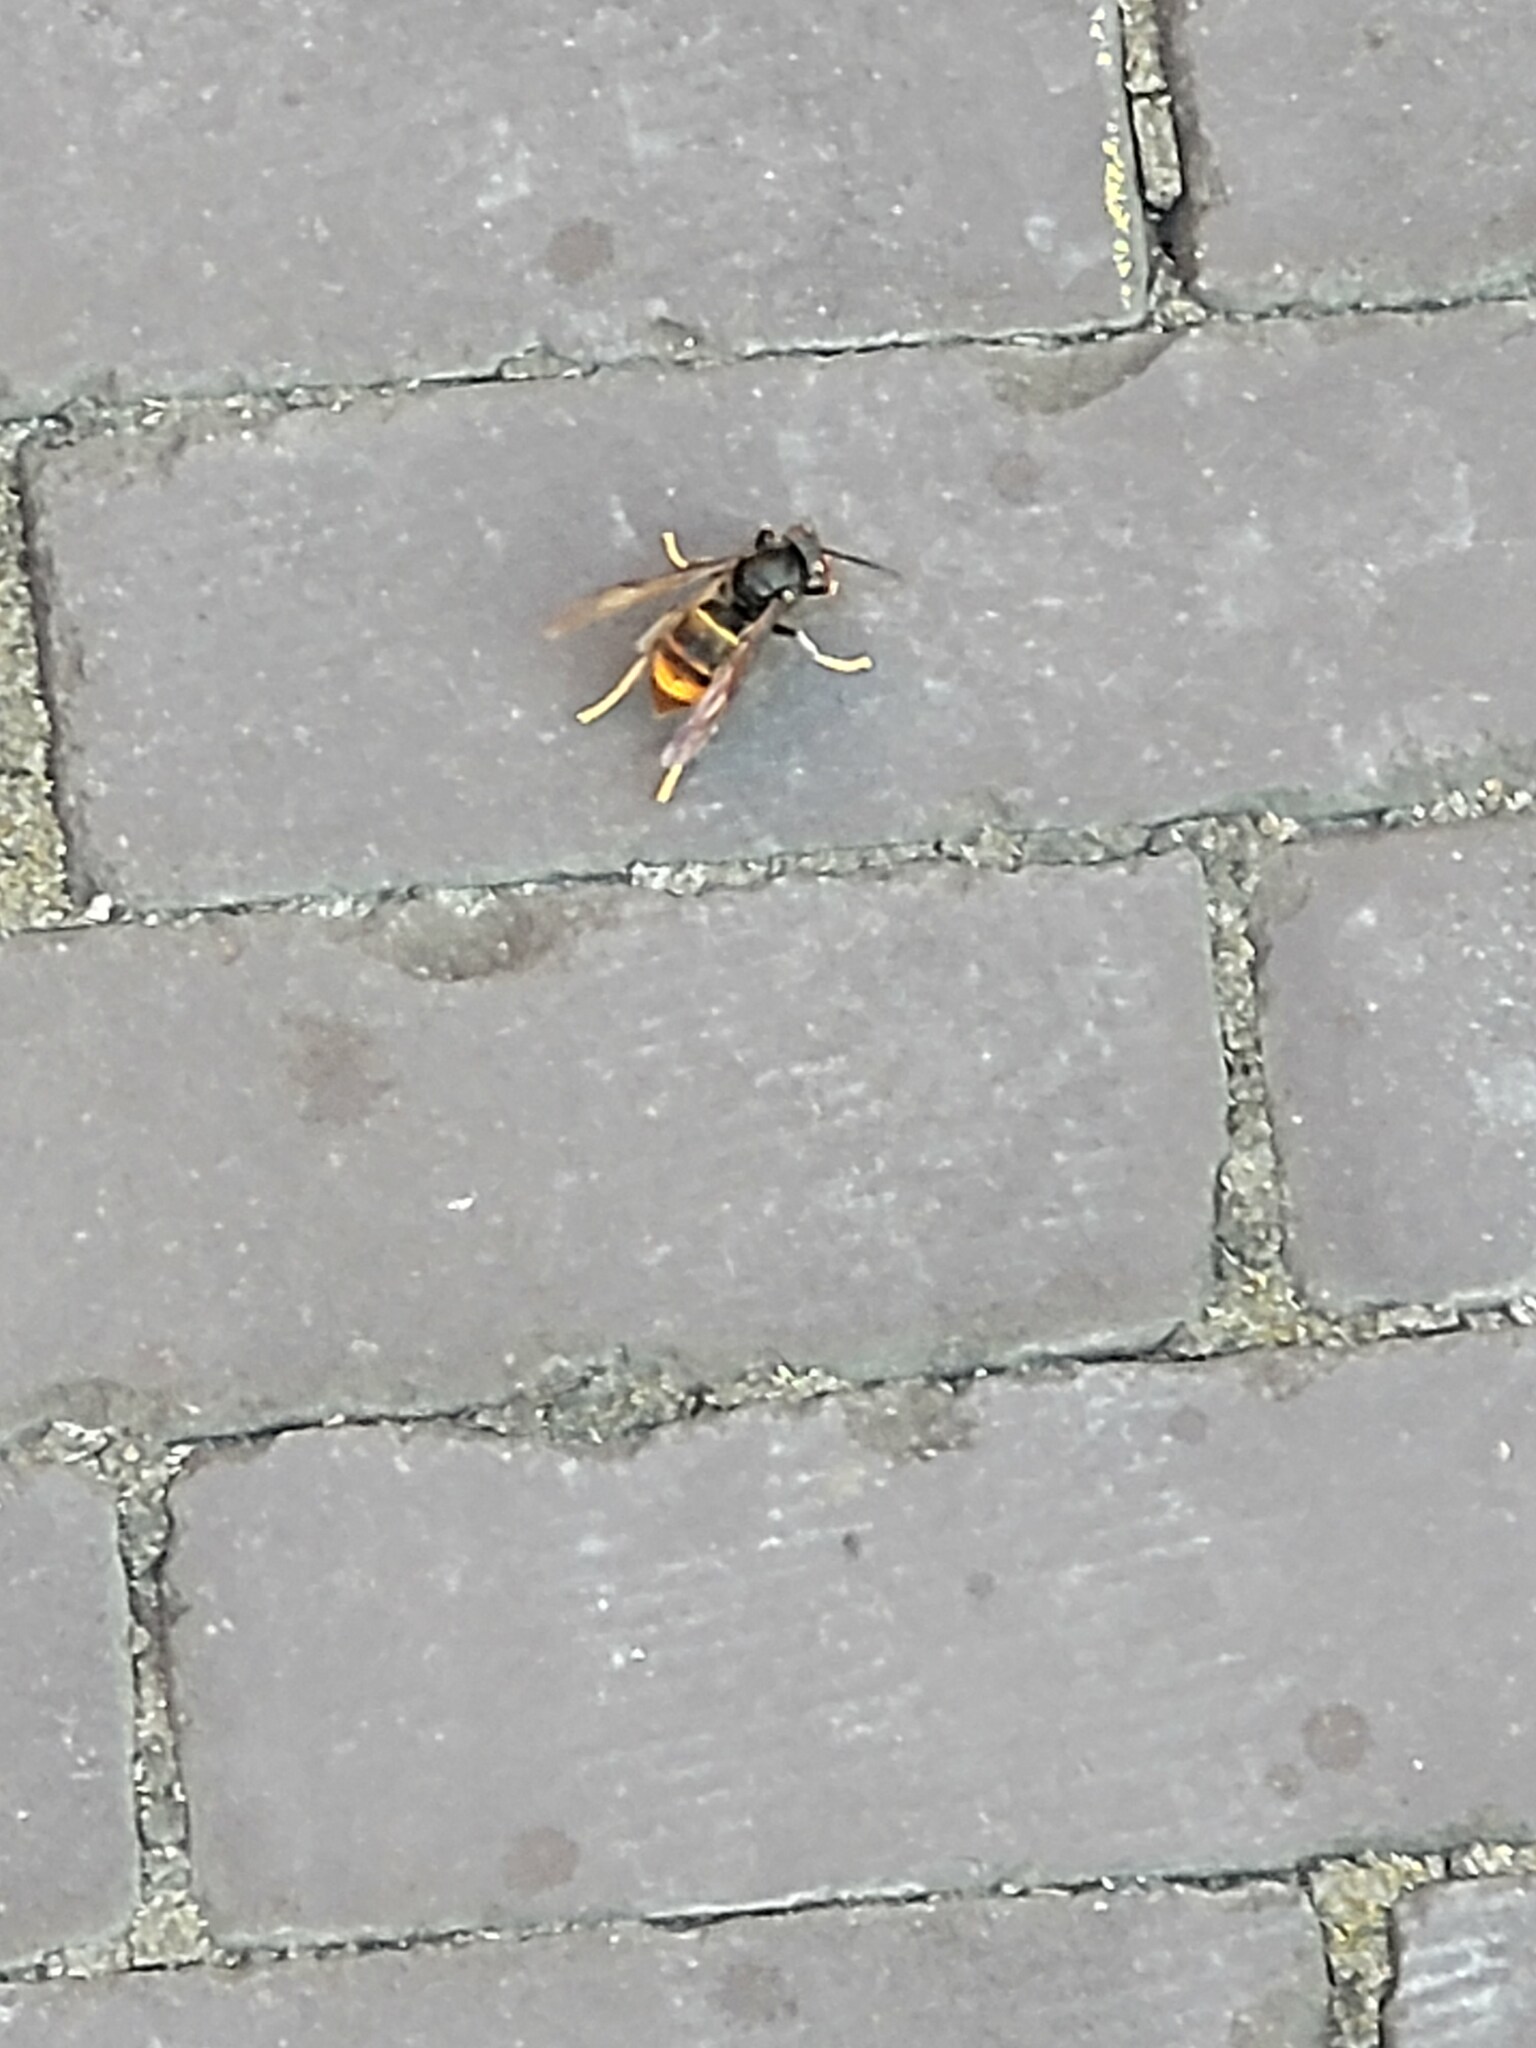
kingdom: Animalia
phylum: Arthropoda
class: Insecta
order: Hymenoptera
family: Vespidae
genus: Vespa
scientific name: Vespa velutina
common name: Asian hornet
